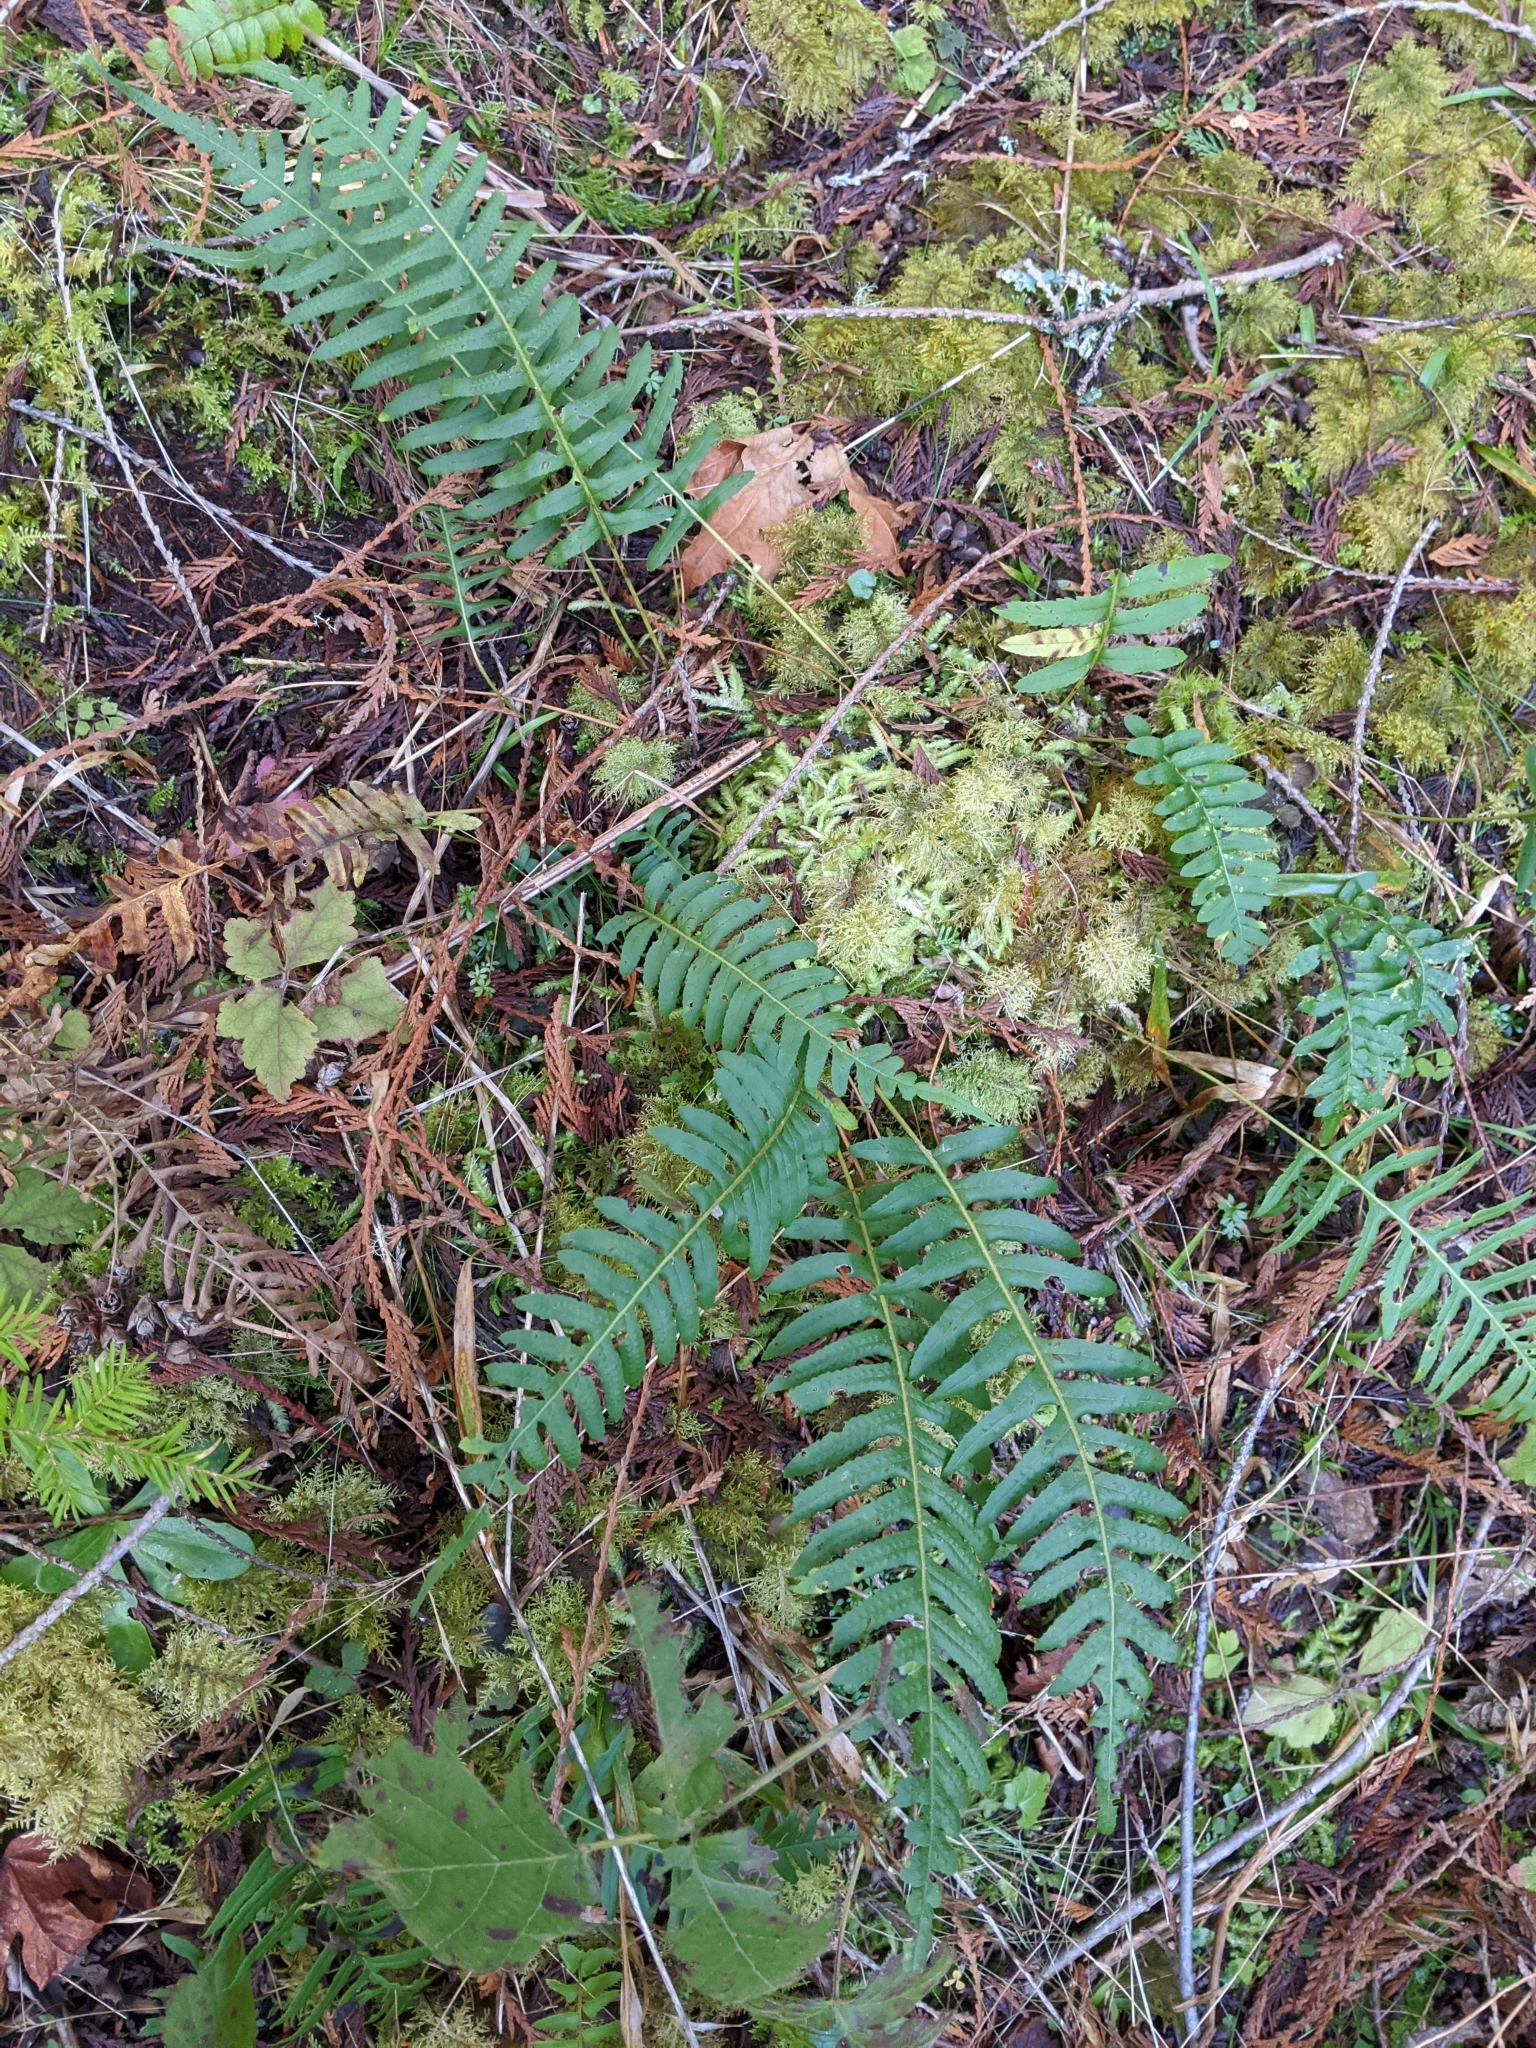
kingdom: Plantae
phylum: Tracheophyta
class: Polypodiopsida
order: Polypodiales
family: Polypodiaceae
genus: Polypodium
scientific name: Polypodium glycyrrhiza
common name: Licorice fern
